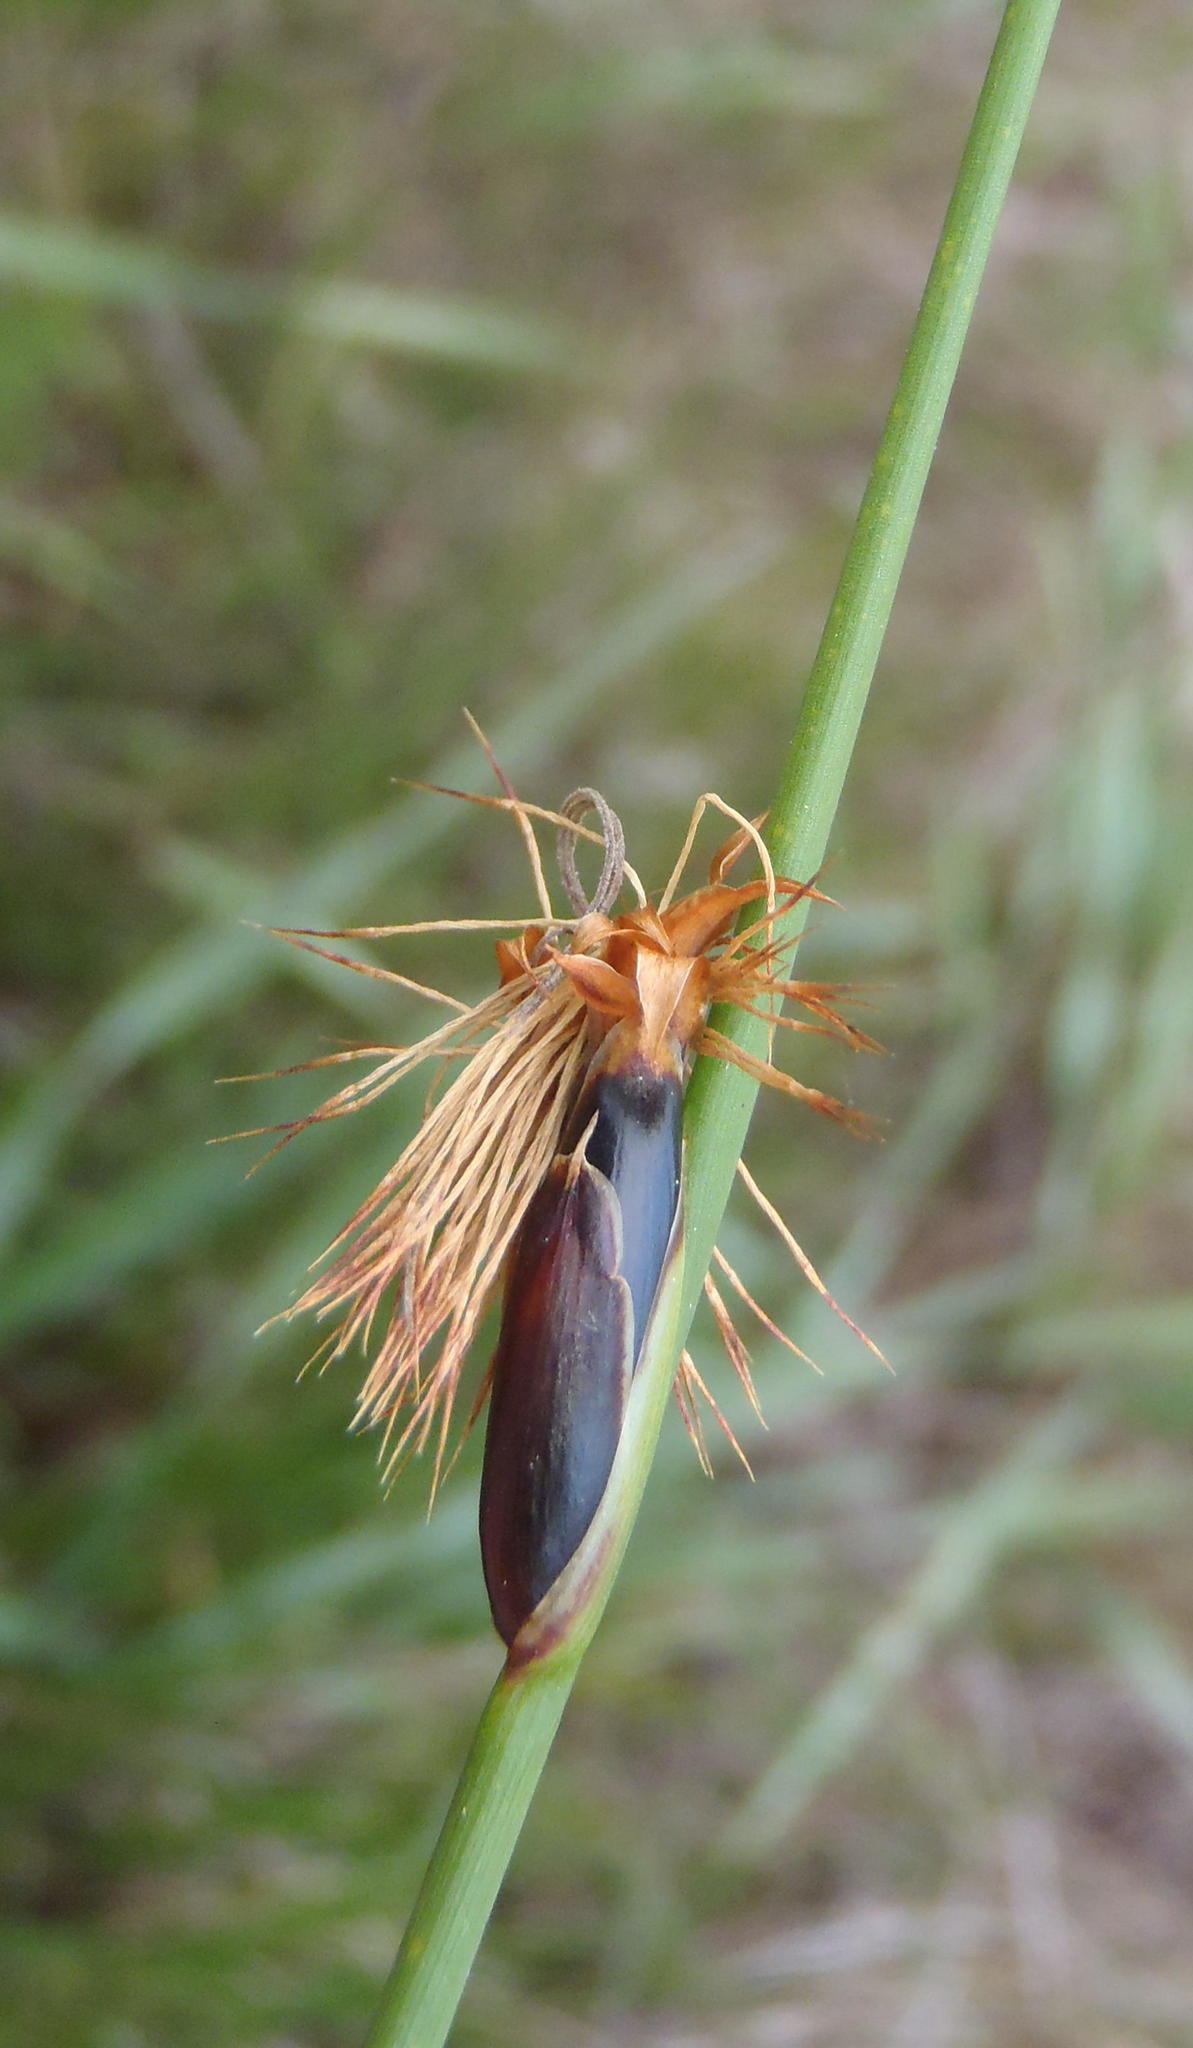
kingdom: Plantae
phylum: Tracheophyta
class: Liliopsida
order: Poales
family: Cyperaceae
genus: Chrysitrix
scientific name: Chrysitrix capensis
